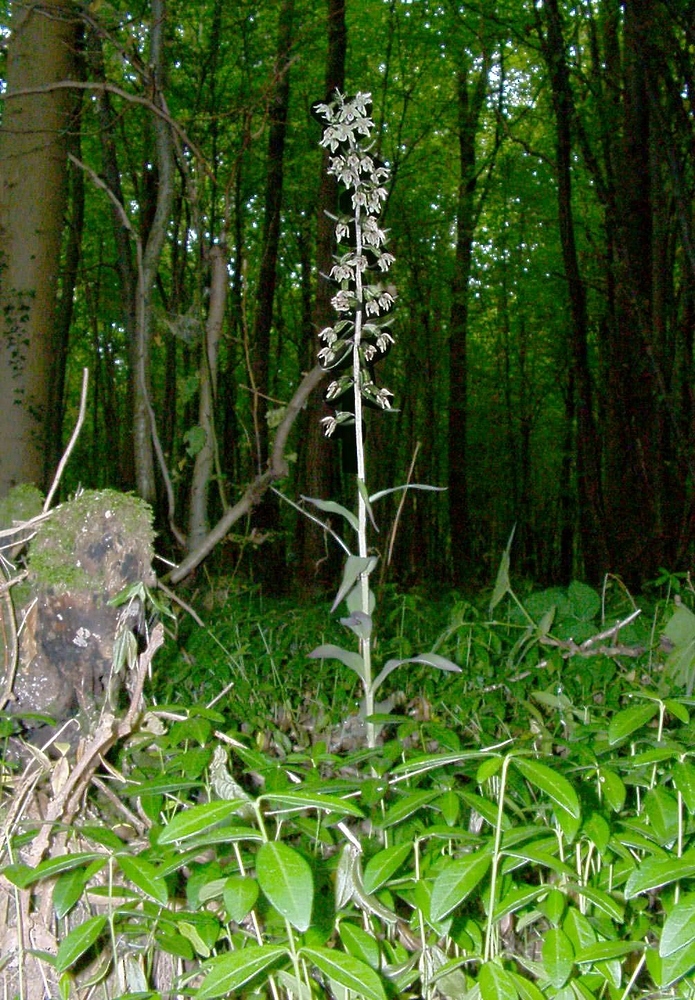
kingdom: Plantae
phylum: Tracheophyta
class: Liliopsida
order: Asparagales
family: Orchidaceae
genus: Epipactis
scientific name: Epipactis purpurata
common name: Violet helleborine
